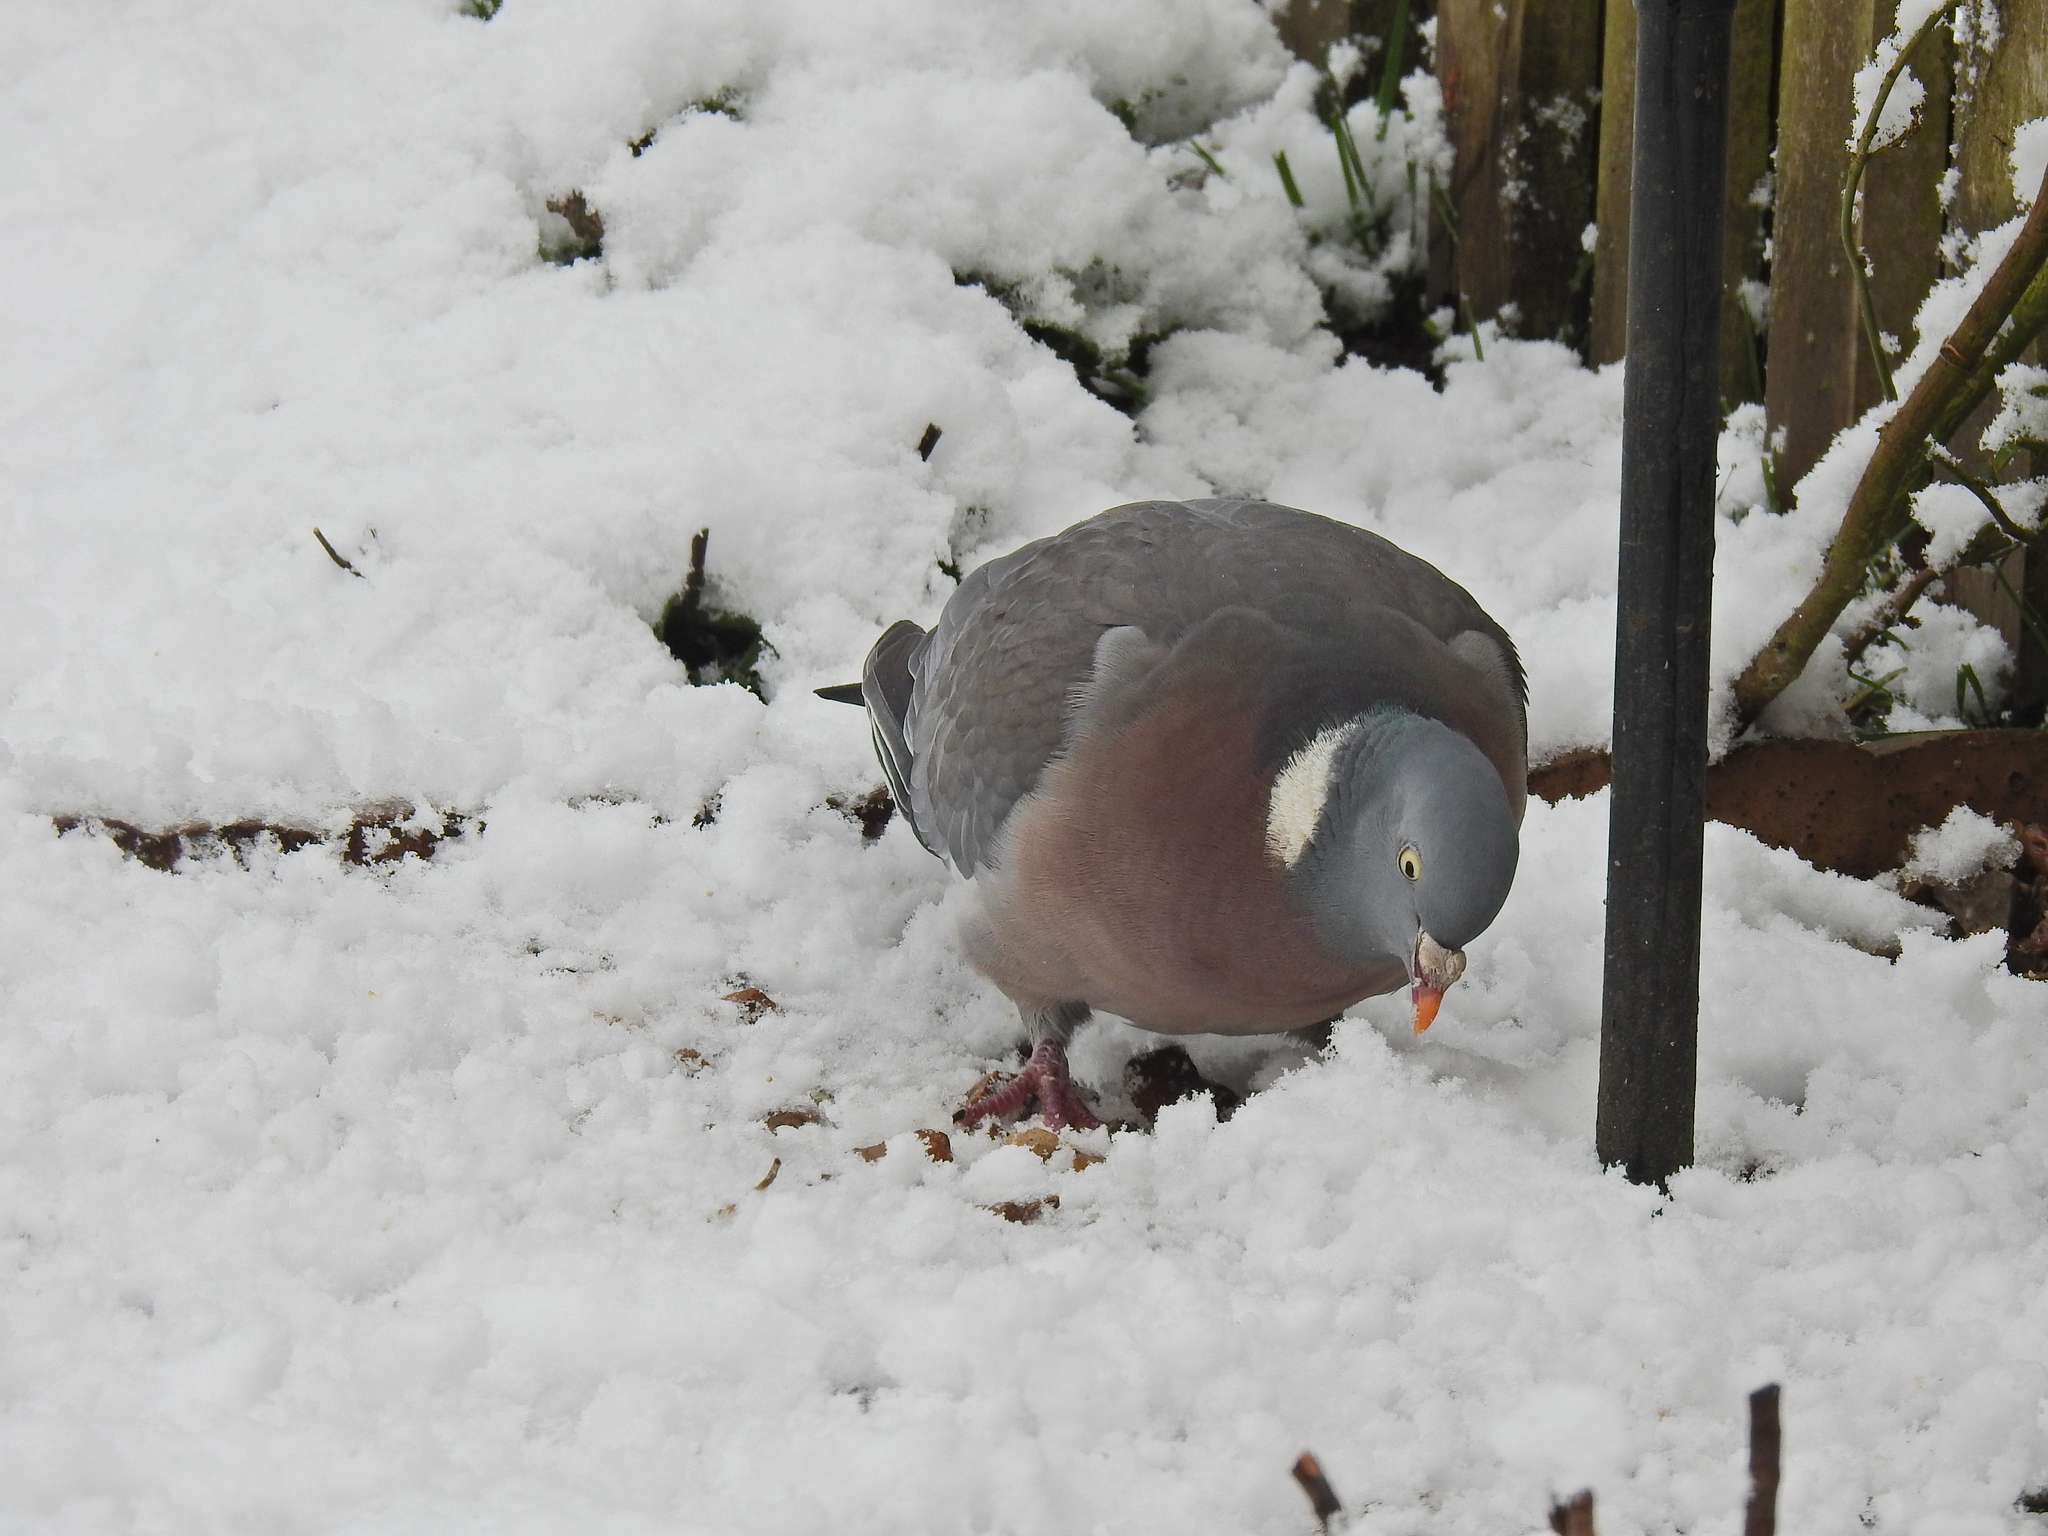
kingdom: Animalia
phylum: Chordata
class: Aves
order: Columbiformes
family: Columbidae
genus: Columba
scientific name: Columba palumbus
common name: Common wood pigeon
